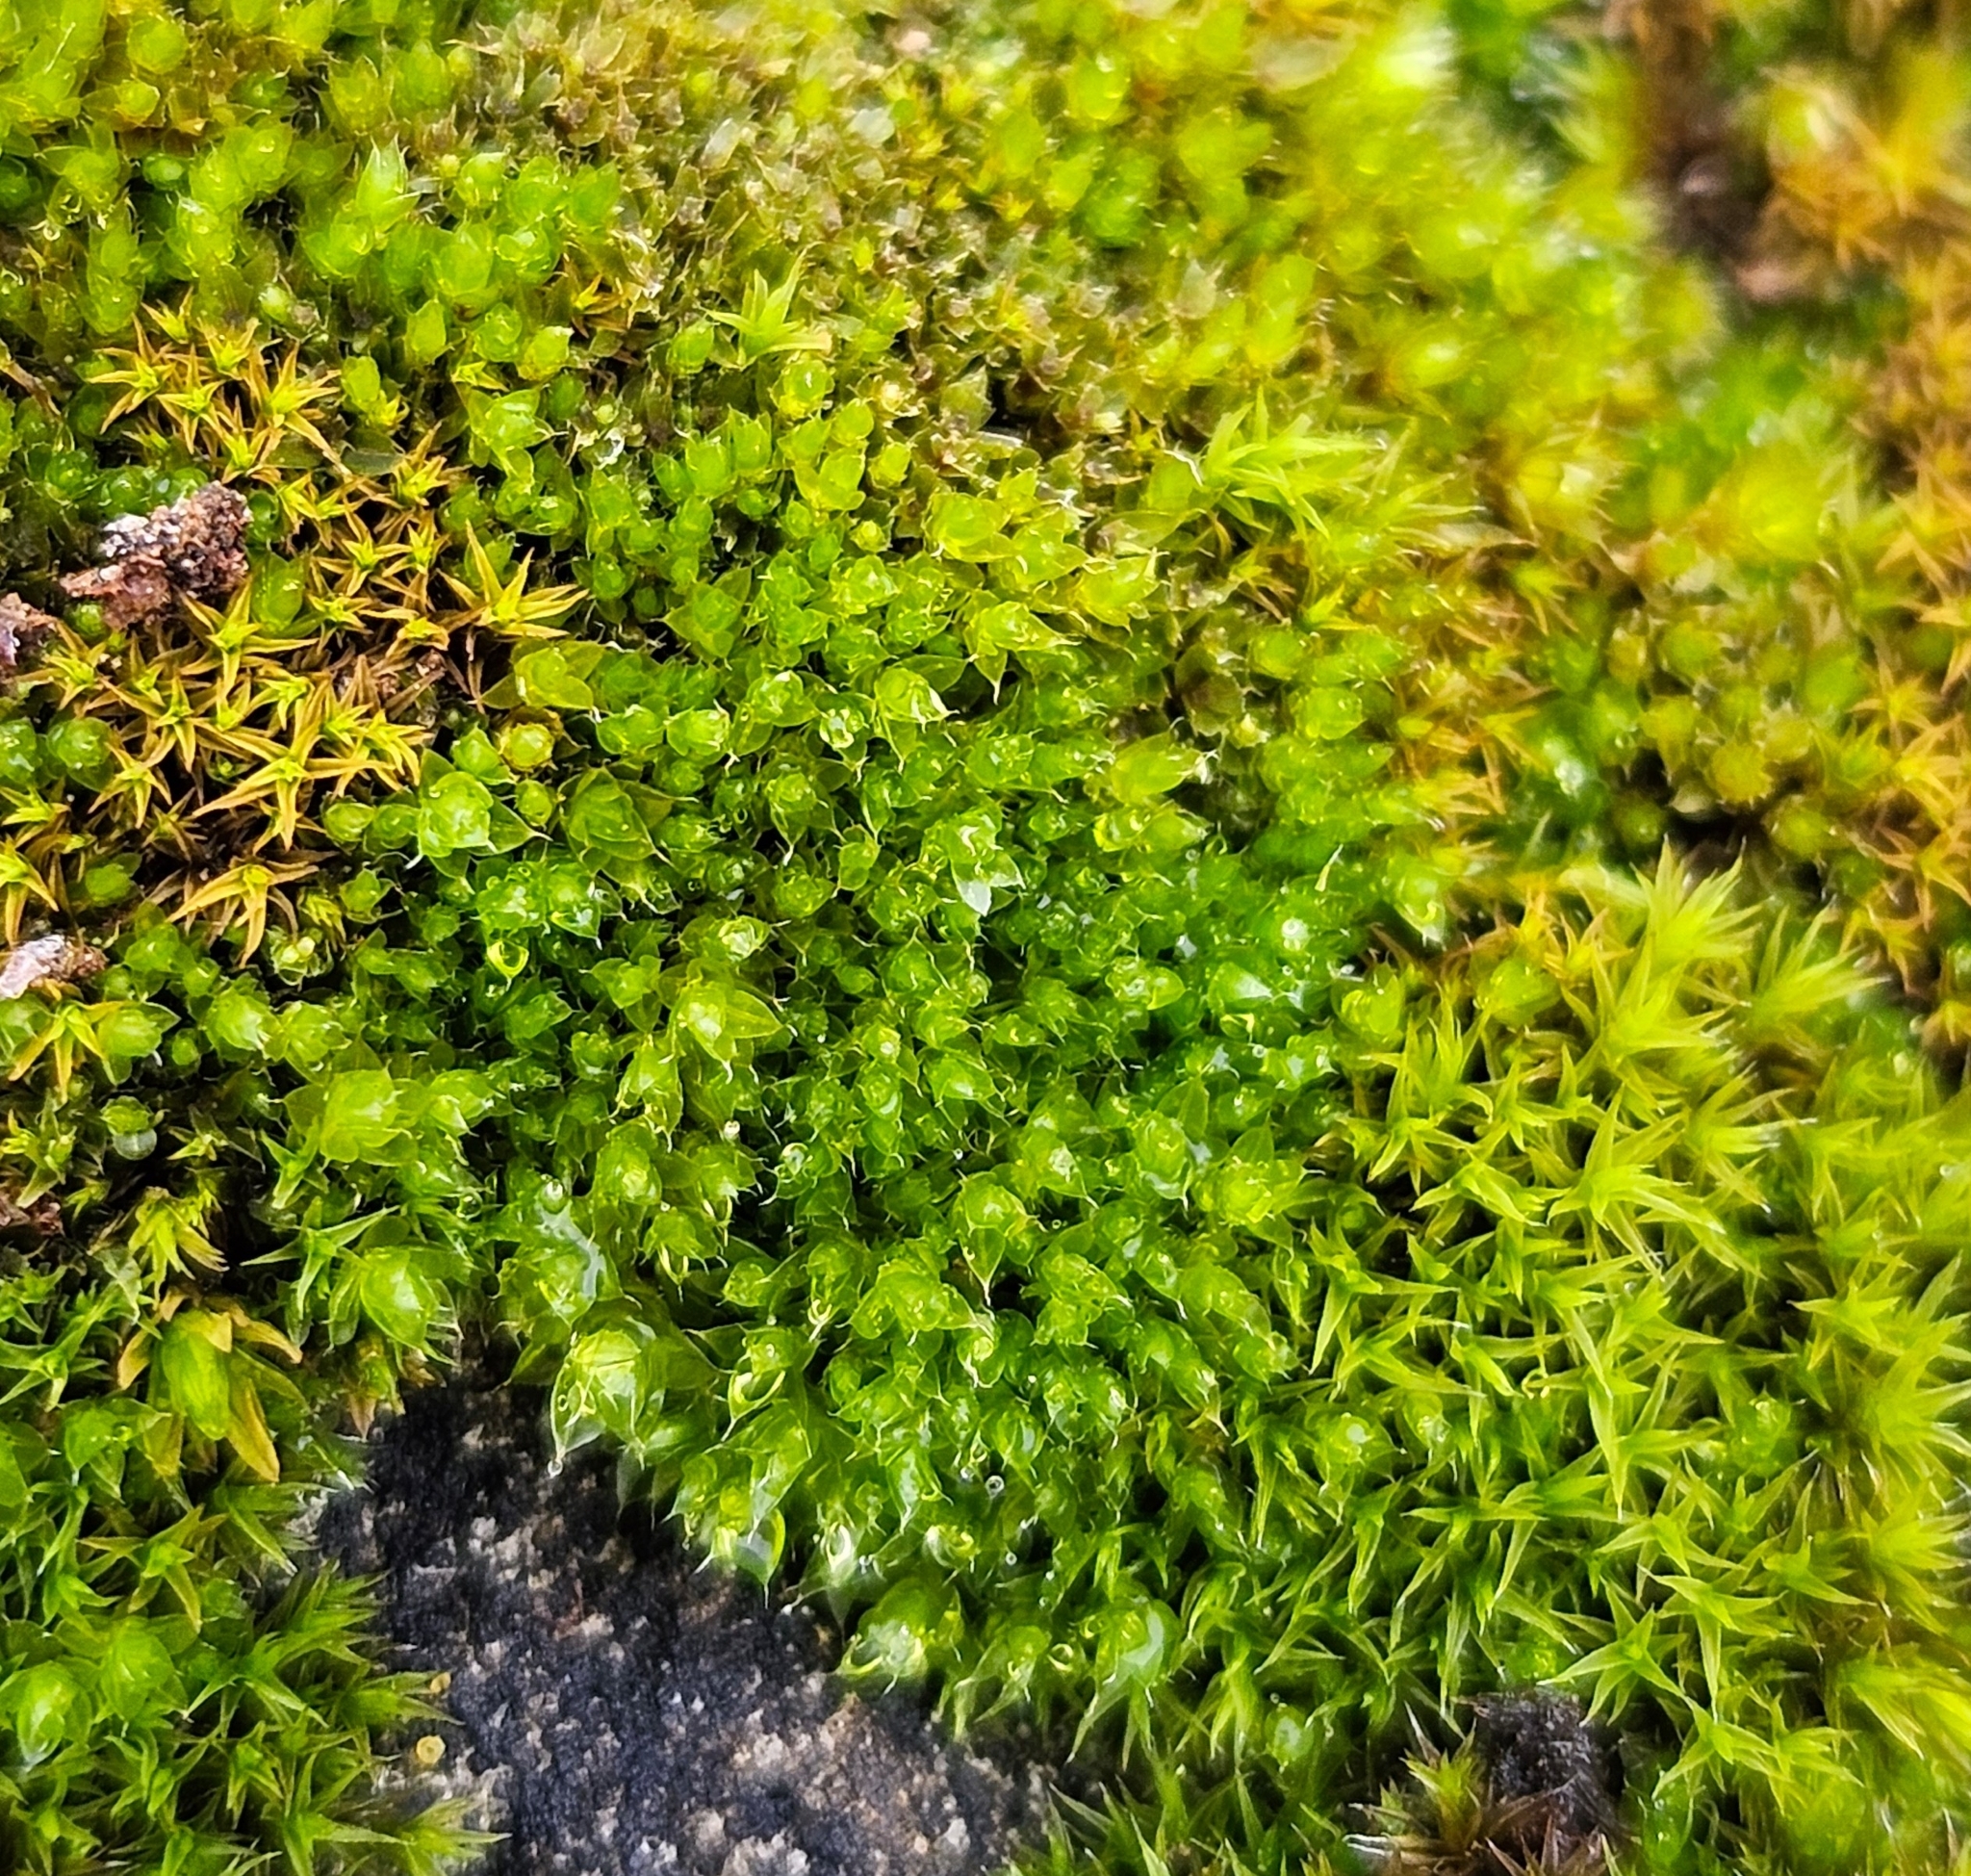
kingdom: Plantae
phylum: Bryophyta
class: Bryopsida
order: Bryales
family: Bryaceae
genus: Rosulabryum
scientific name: Rosulabryum capillare
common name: Capillary thread-moss
